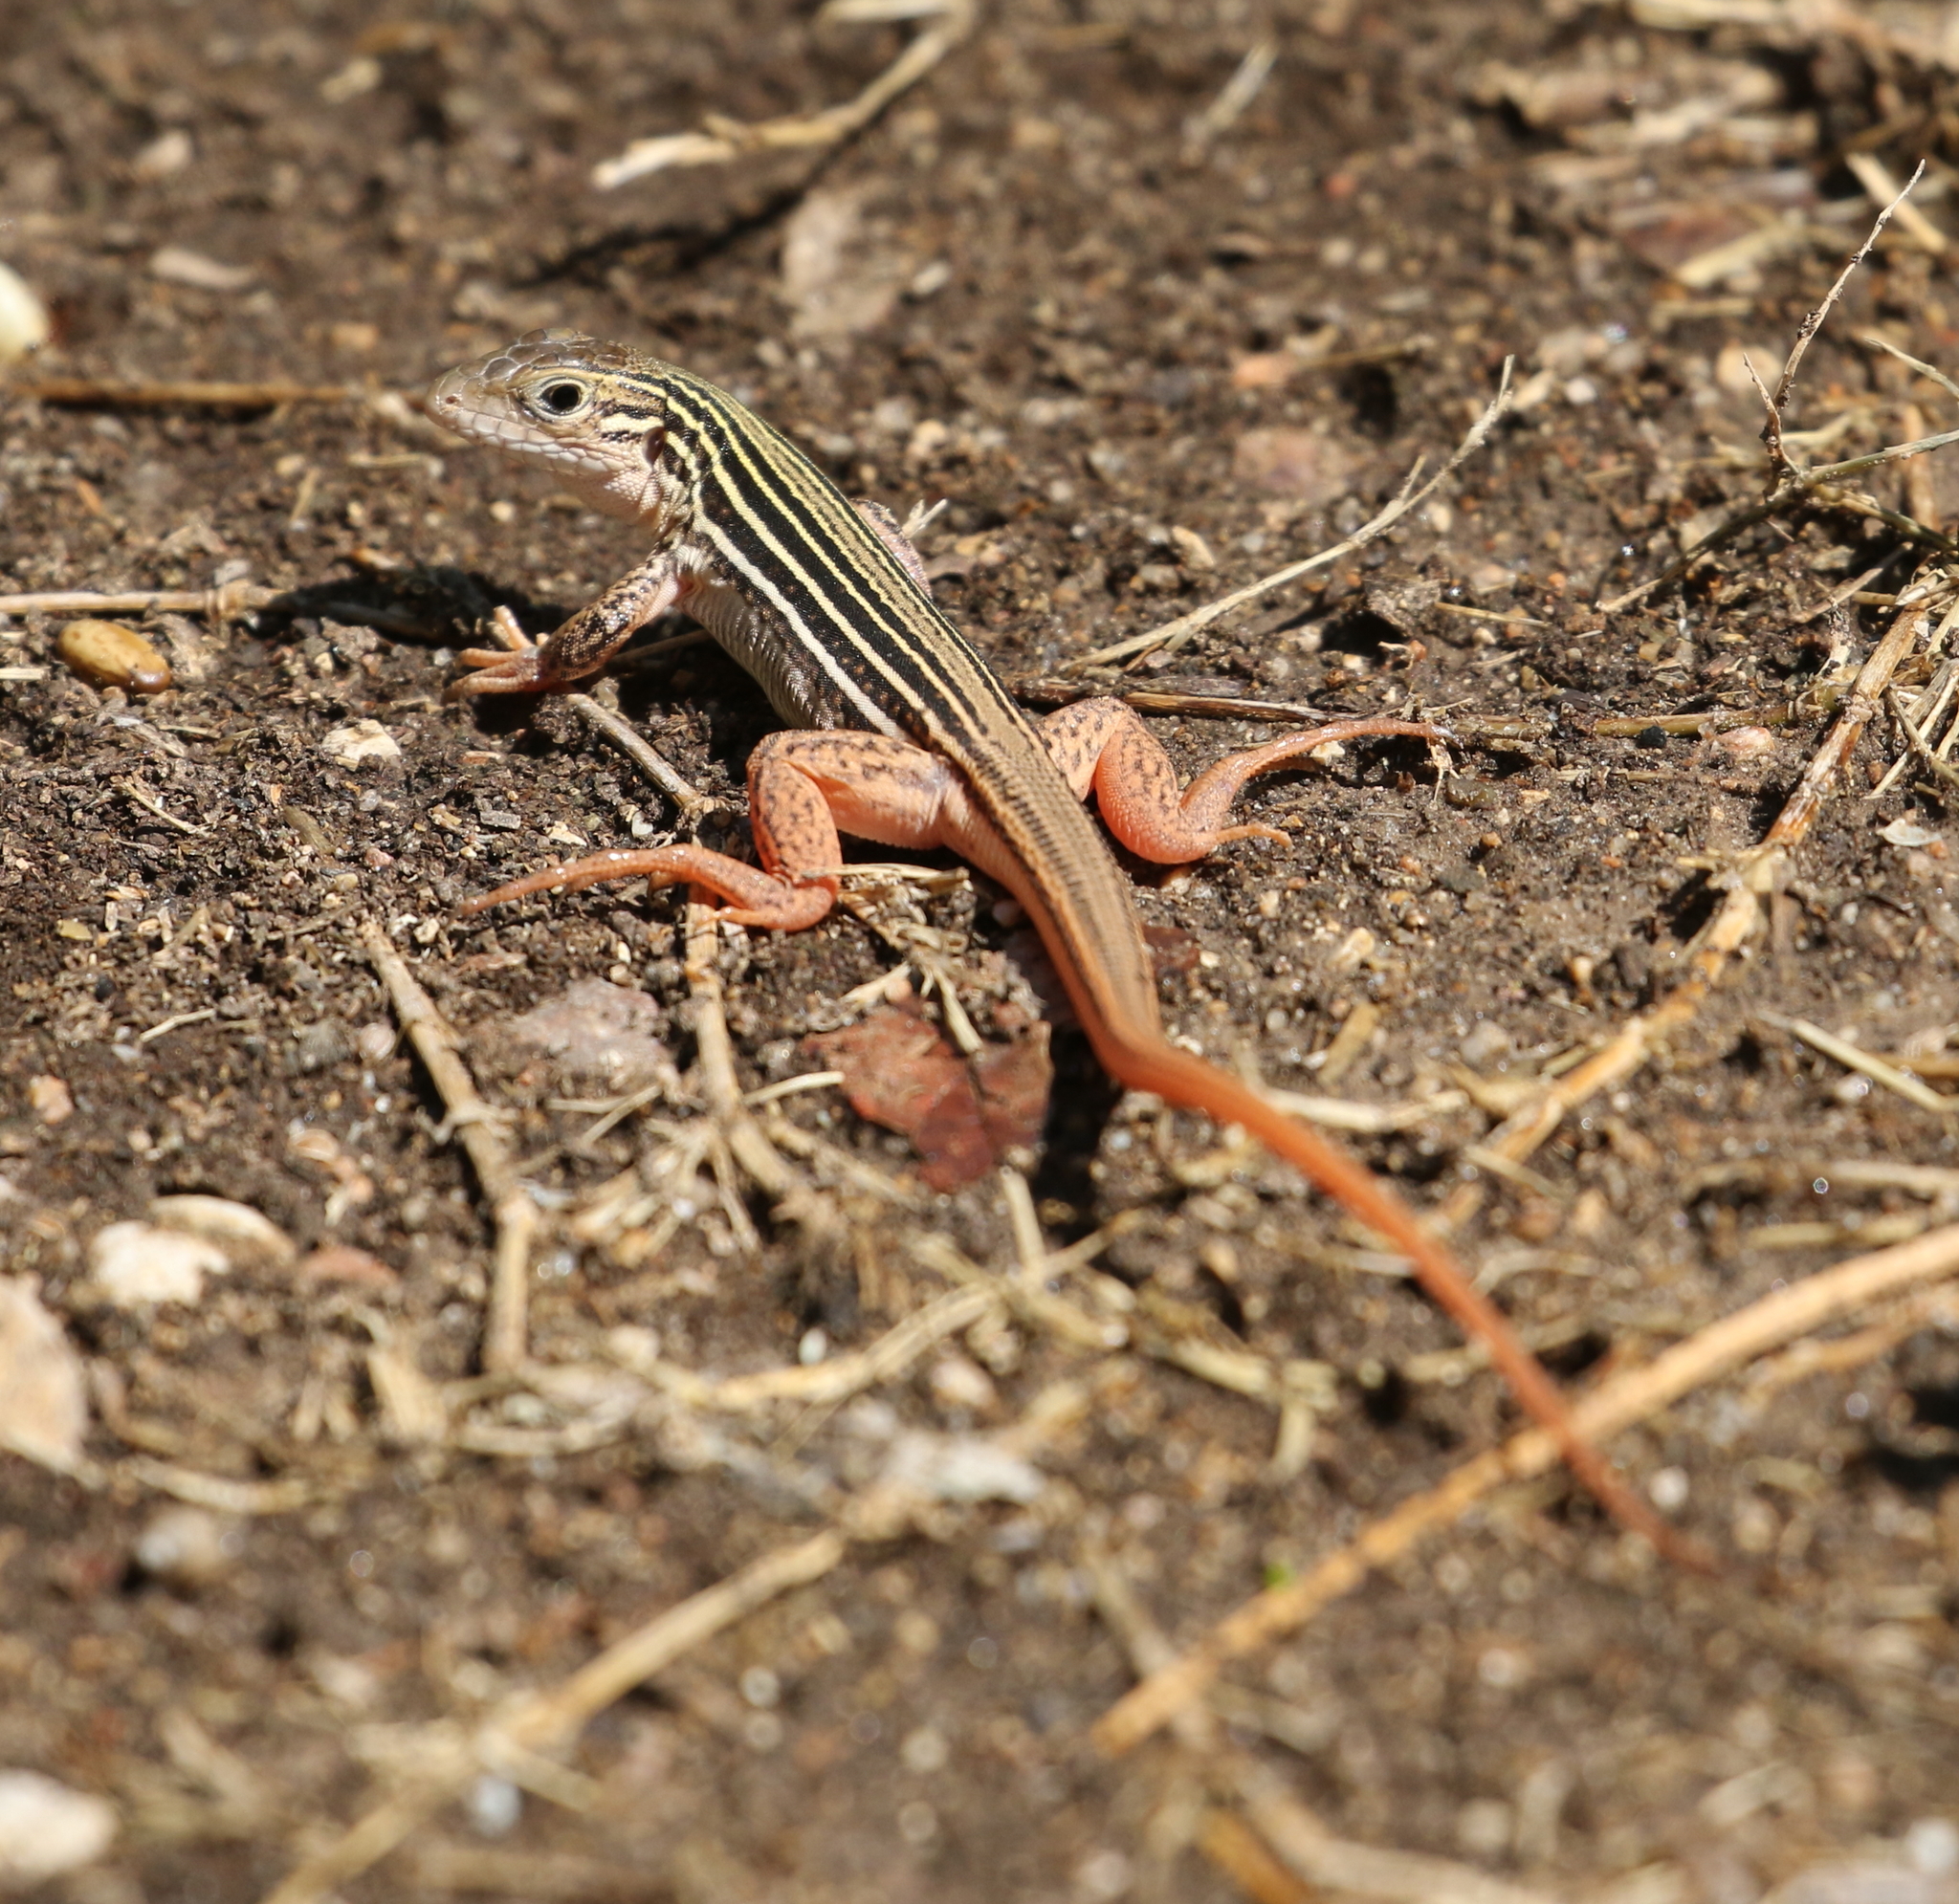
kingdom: Animalia
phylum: Chordata
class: Squamata
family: Teiidae
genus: Aspidoscelis
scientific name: Aspidoscelis gularis
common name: Eastern spotted whiptail
